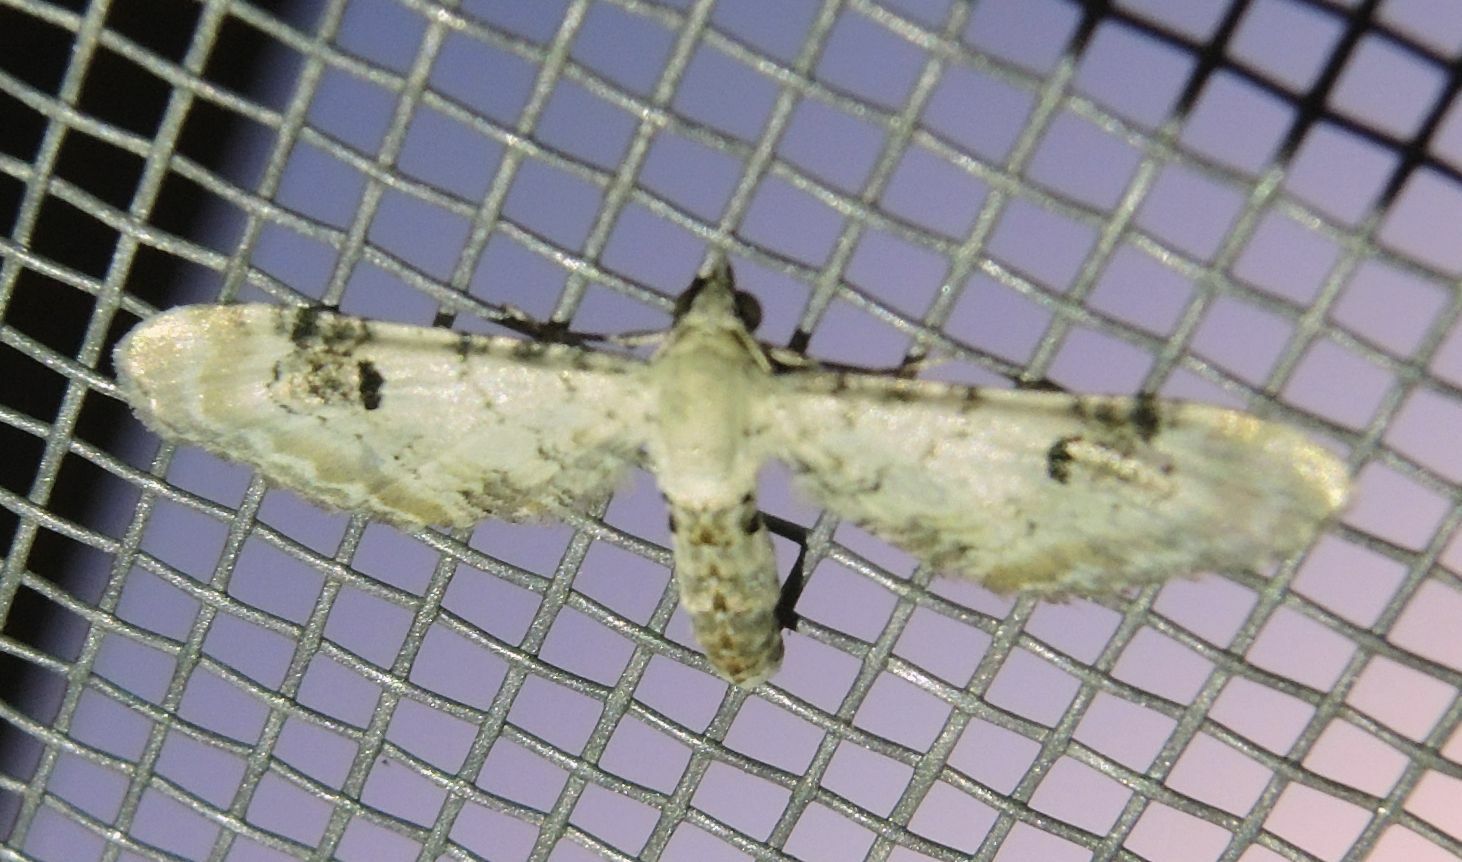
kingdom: Animalia
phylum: Arthropoda
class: Insecta
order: Lepidoptera
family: Geometridae
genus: Eupithecia
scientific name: Eupithecia centaureata
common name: Lime-speck pug
